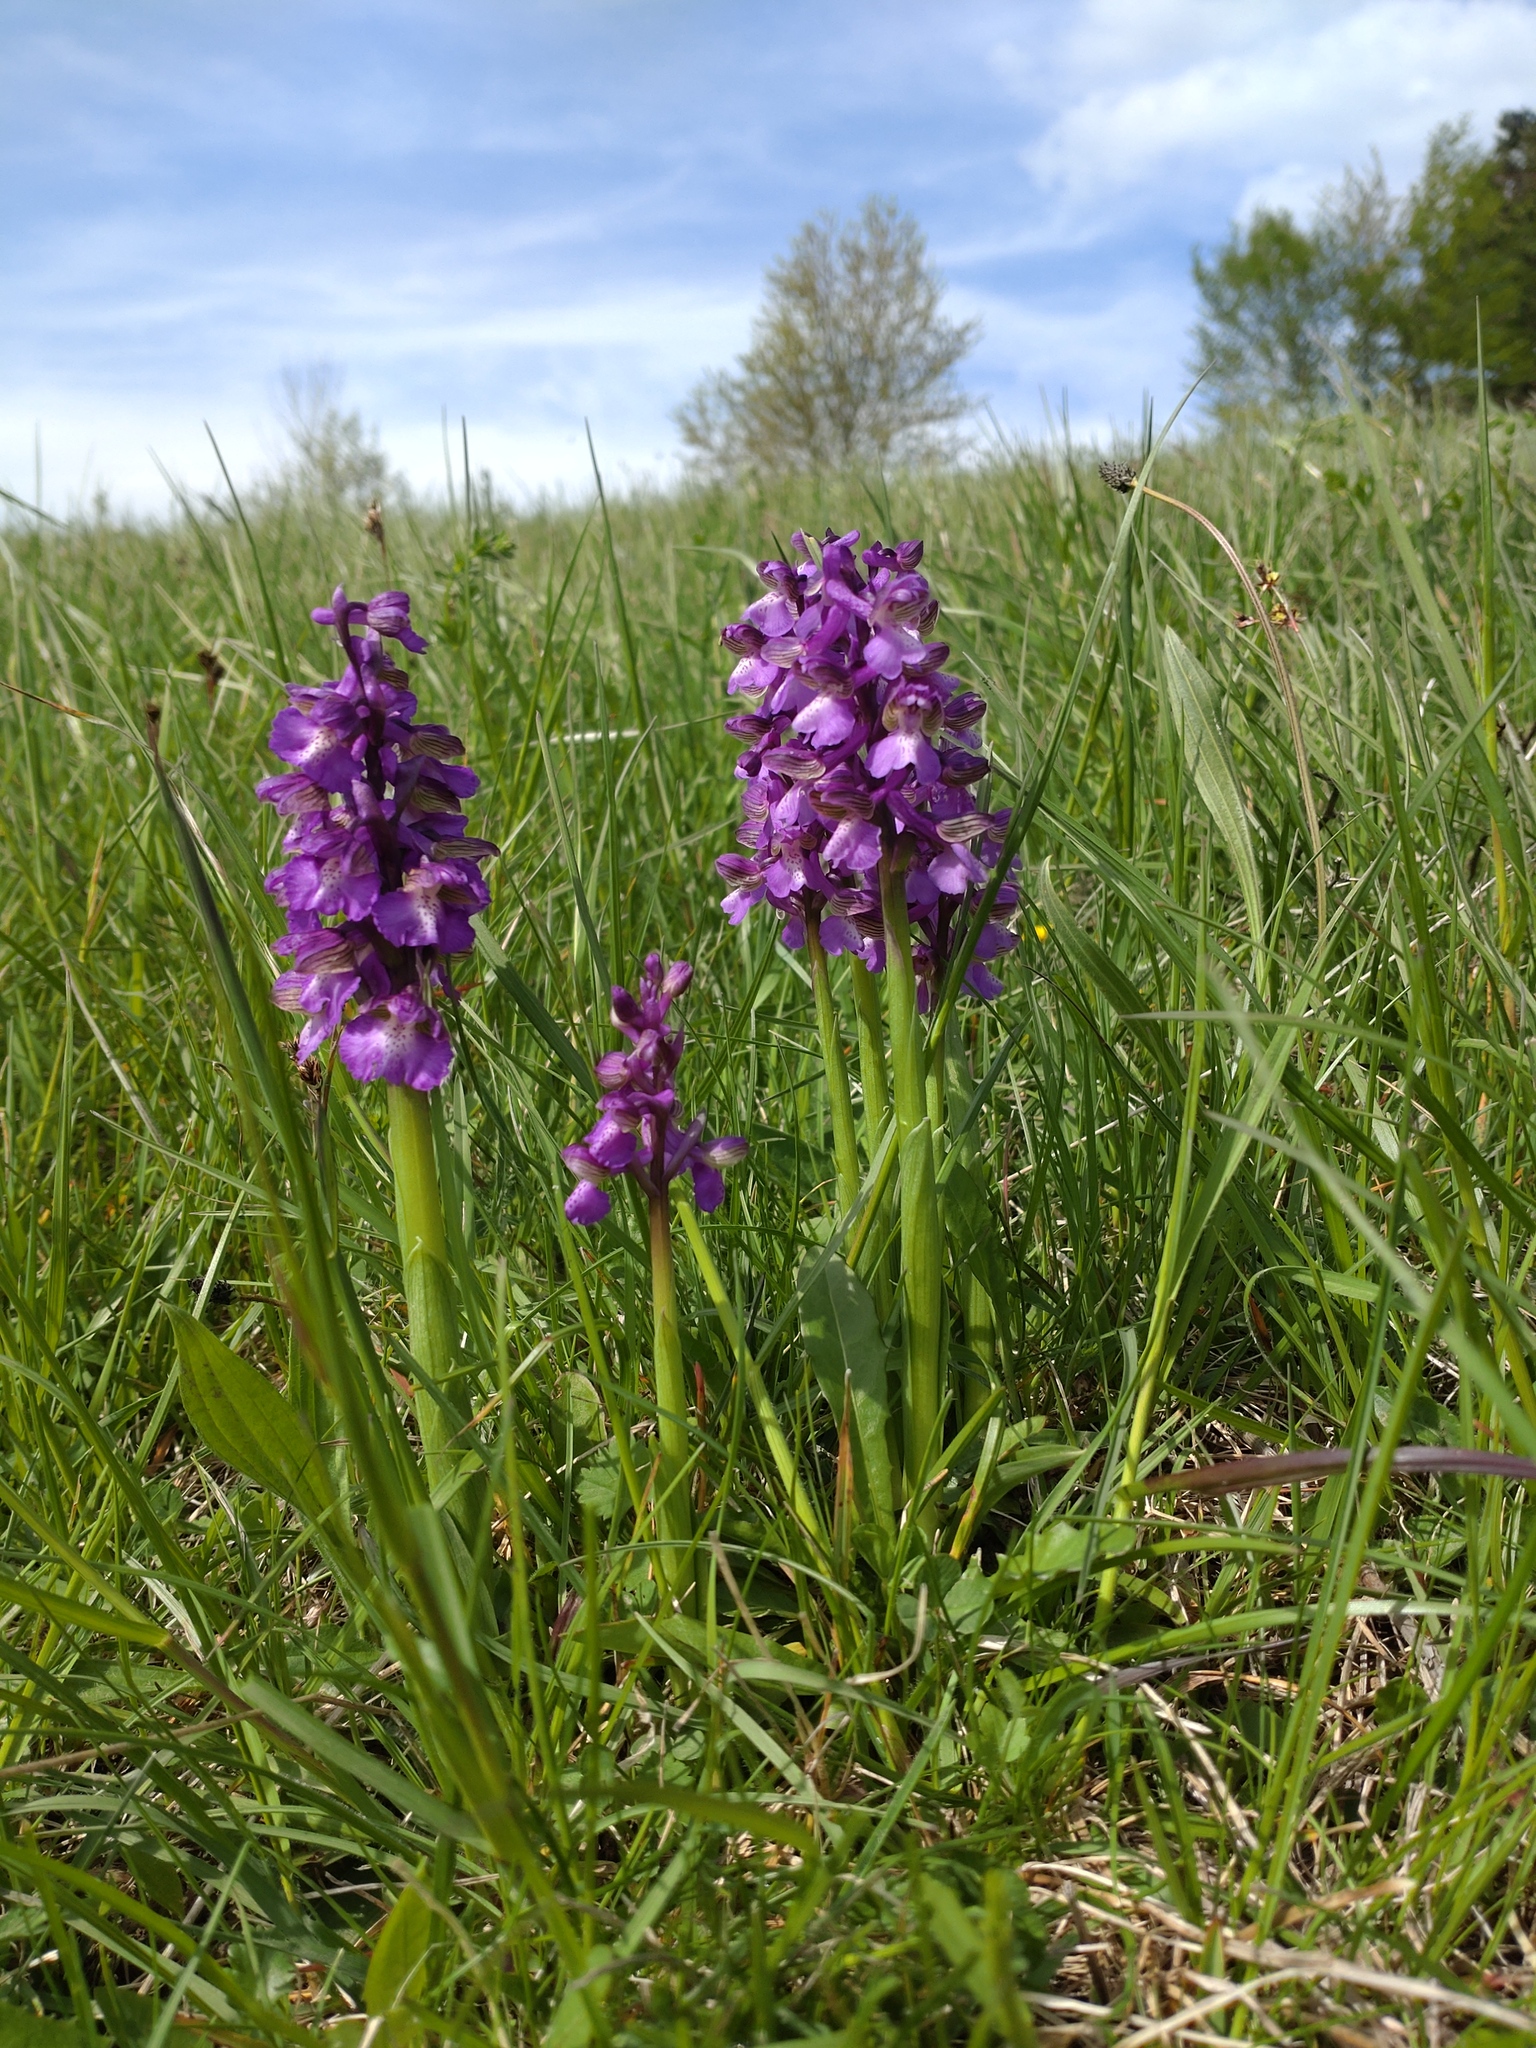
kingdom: Plantae
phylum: Tracheophyta
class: Liliopsida
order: Asparagales
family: Orchidaceae
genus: Anacamptis
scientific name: Anacamptis morio
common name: Green-winged orchid
